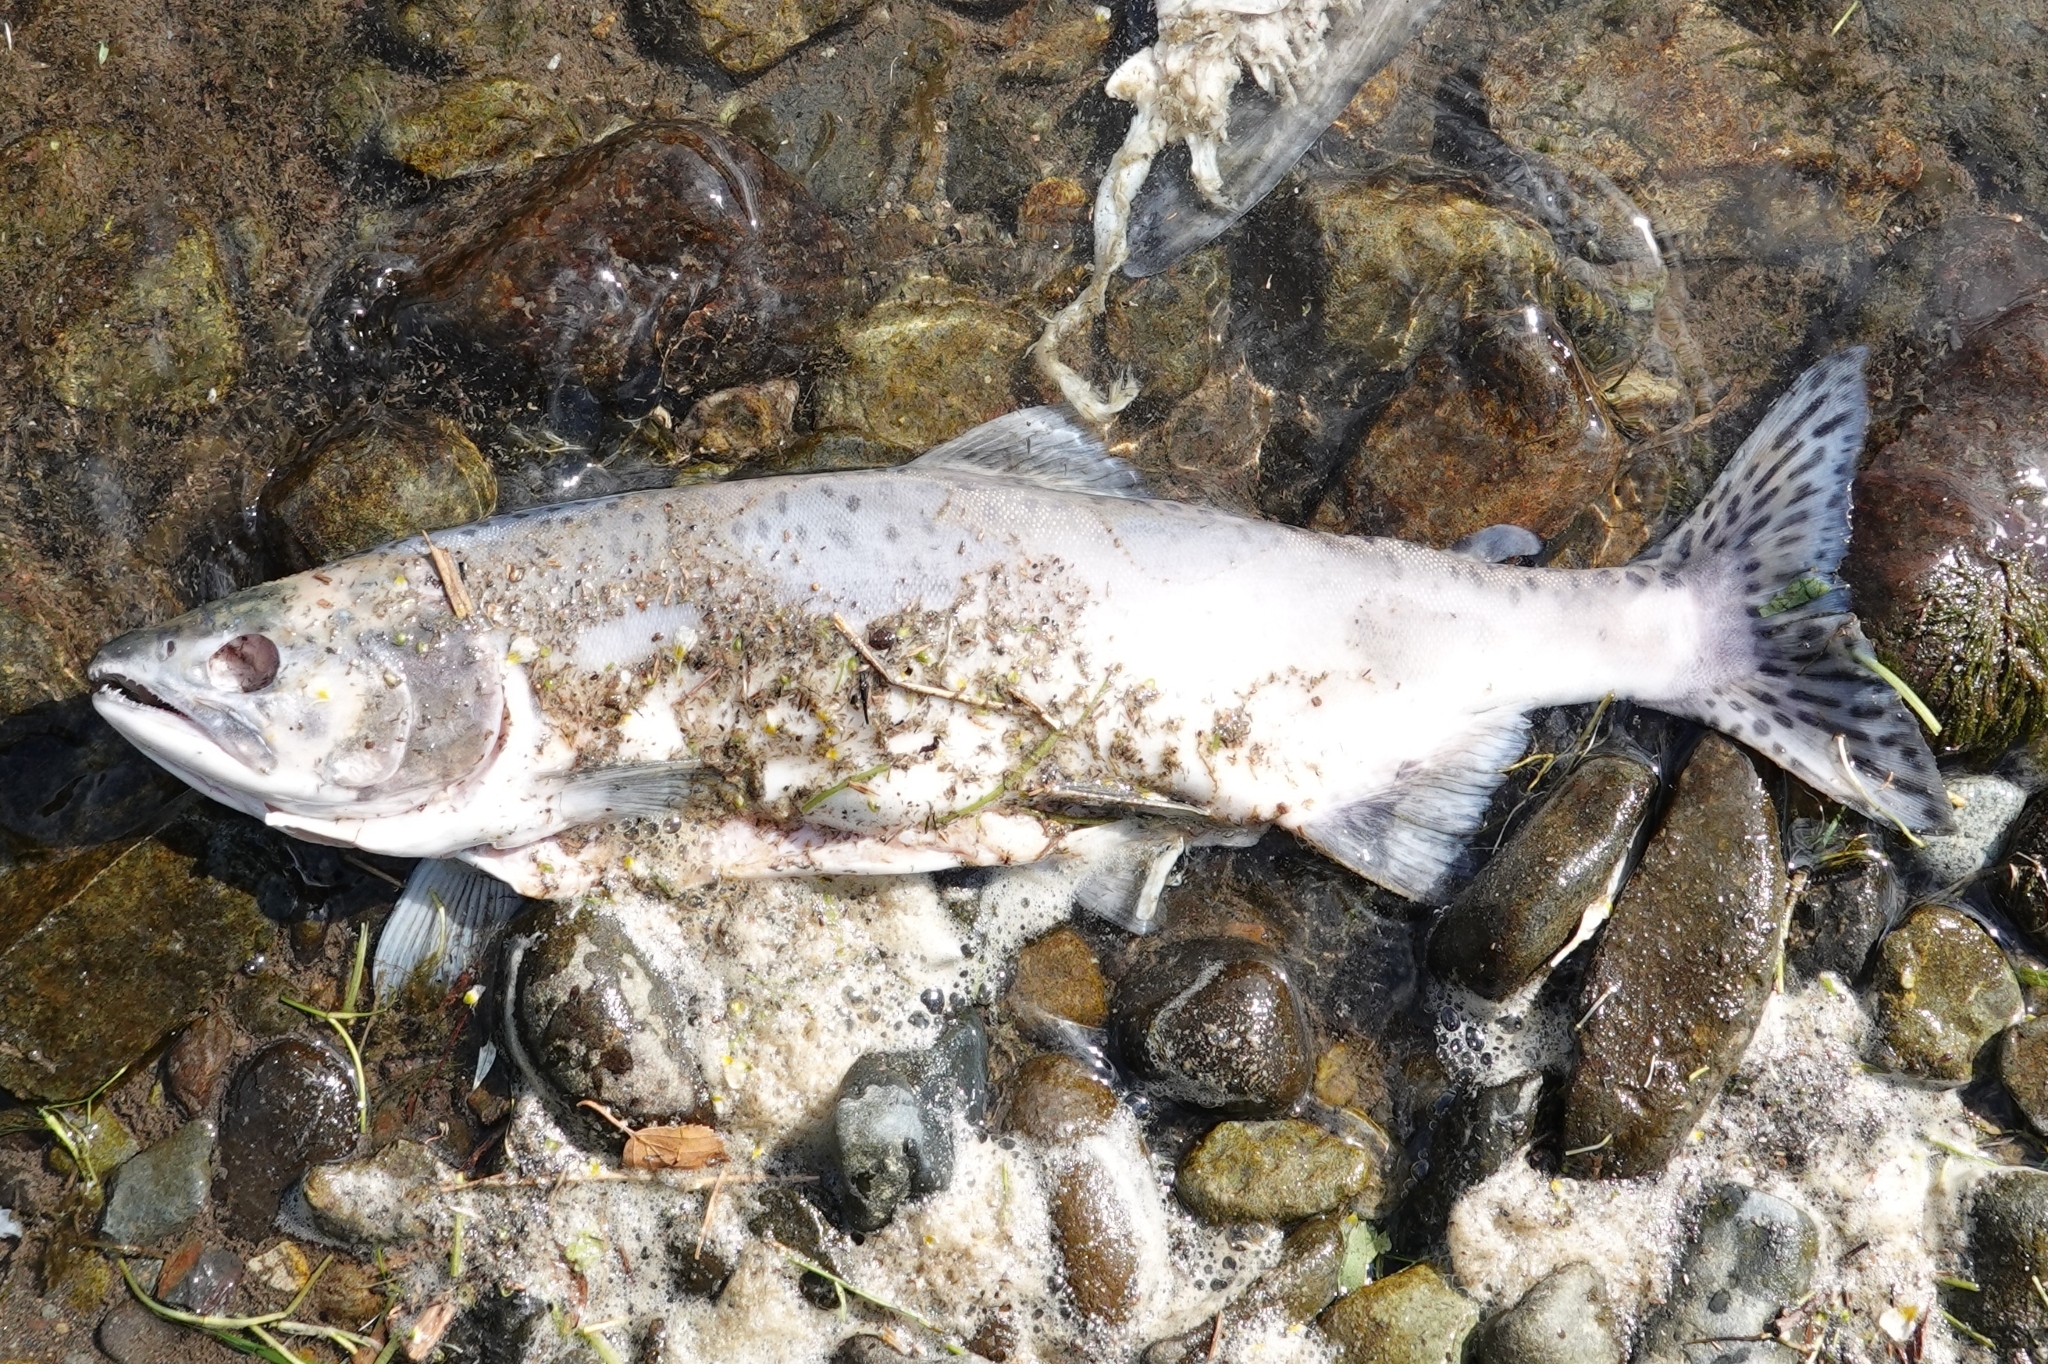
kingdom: Animalia
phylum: Chordata
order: Salmoniformes
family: Salmonidae
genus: Oncorhynchus
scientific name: Oncorhynchus gorbuscha
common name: Humpback salmon
